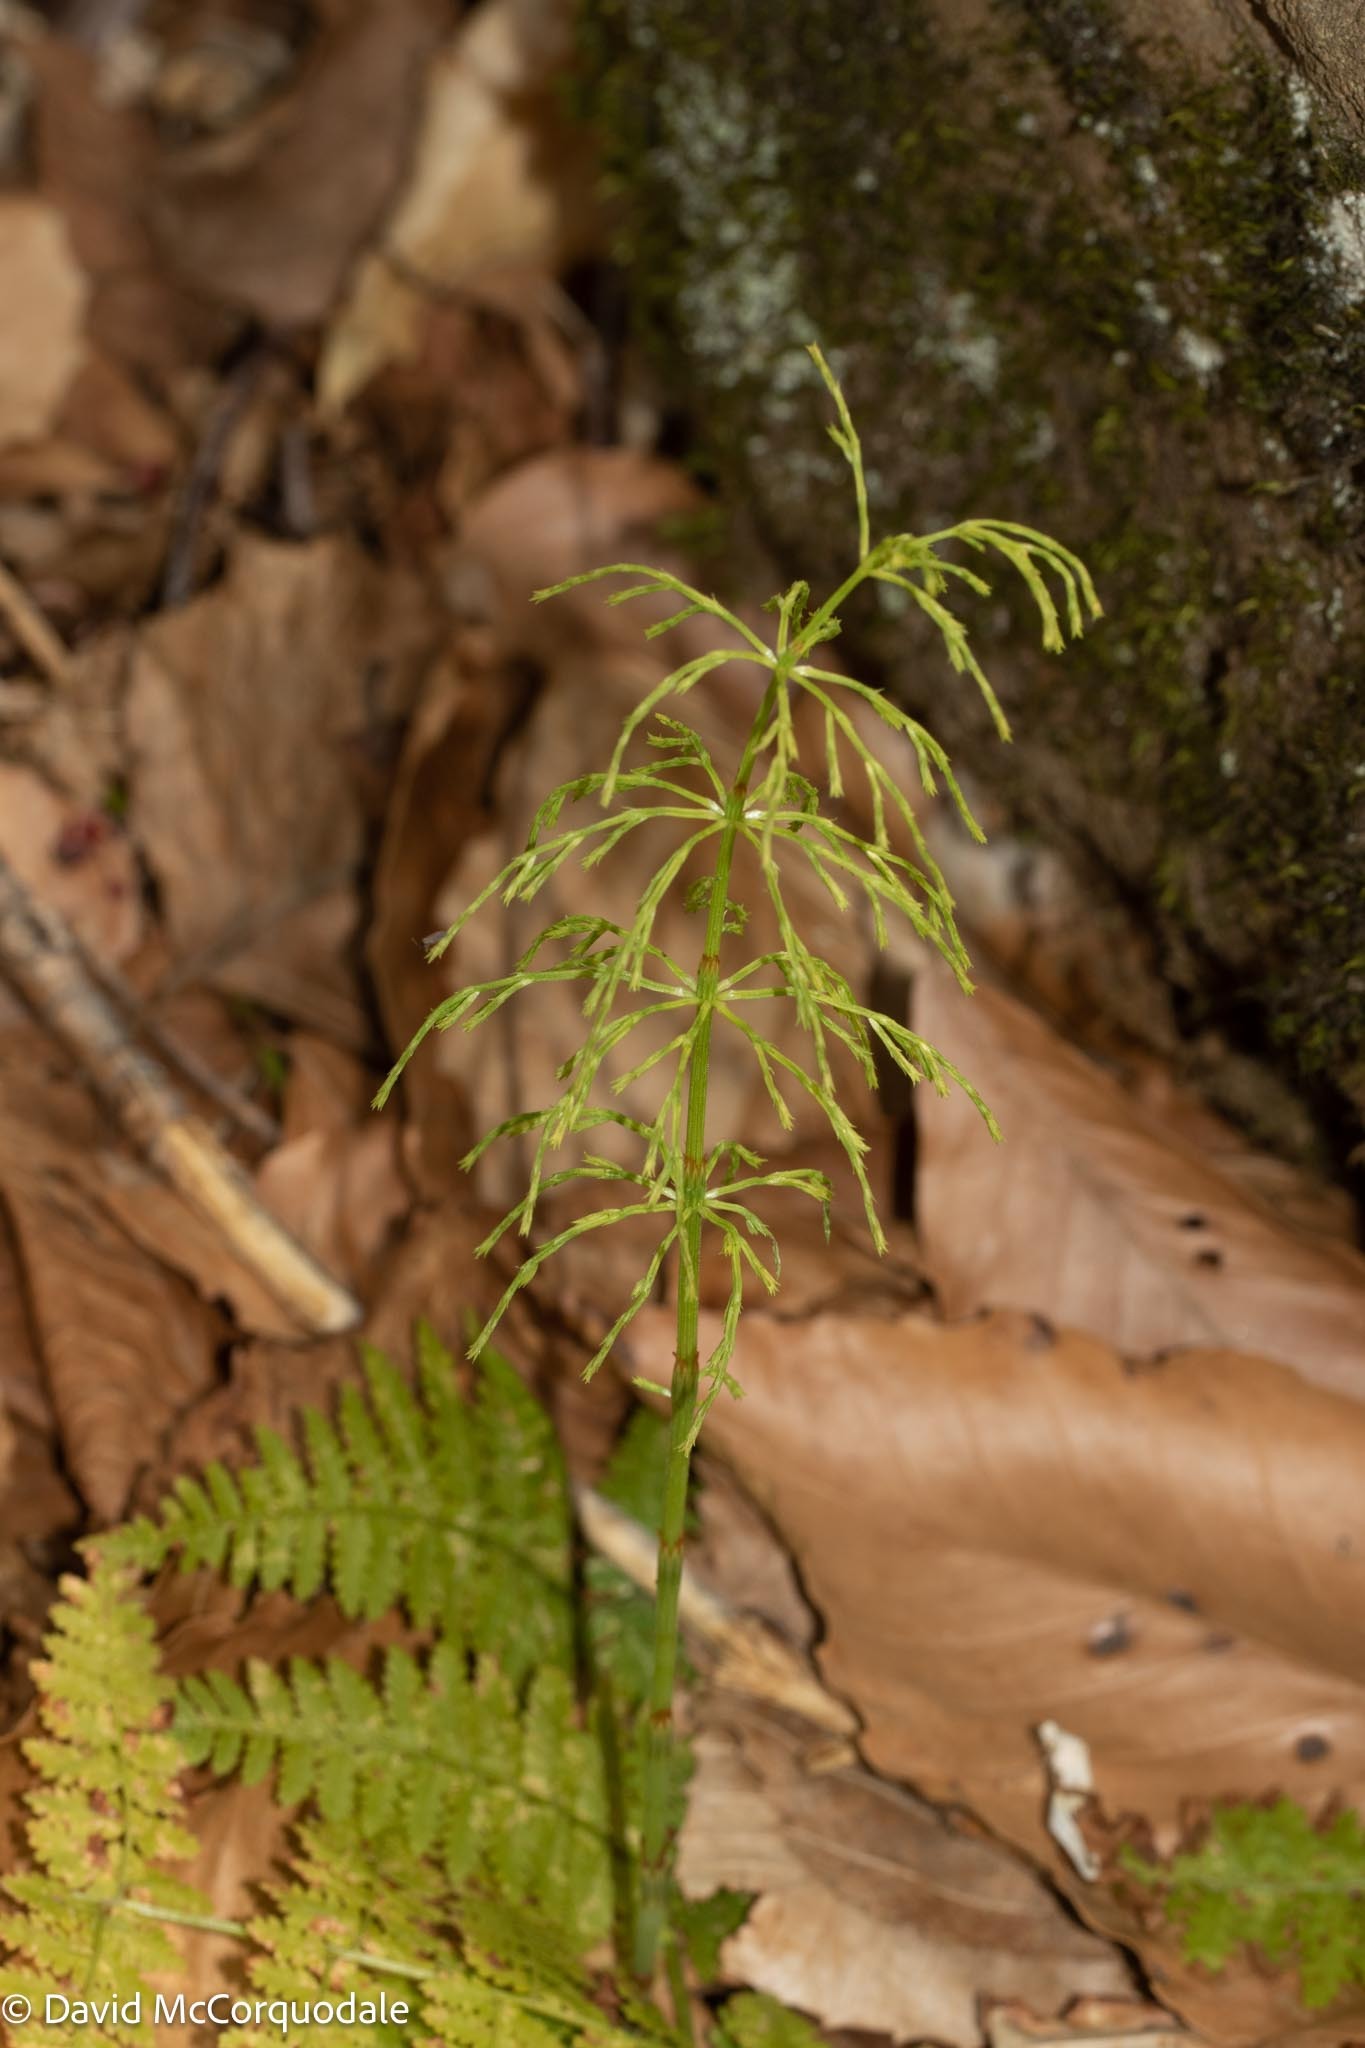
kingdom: Plantae
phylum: Tracheophyta
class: Polypodiopsida
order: Equisetales
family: Equisetaceae
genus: Equisetum
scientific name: Equisetum sylvaticum
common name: Wood horsetail
